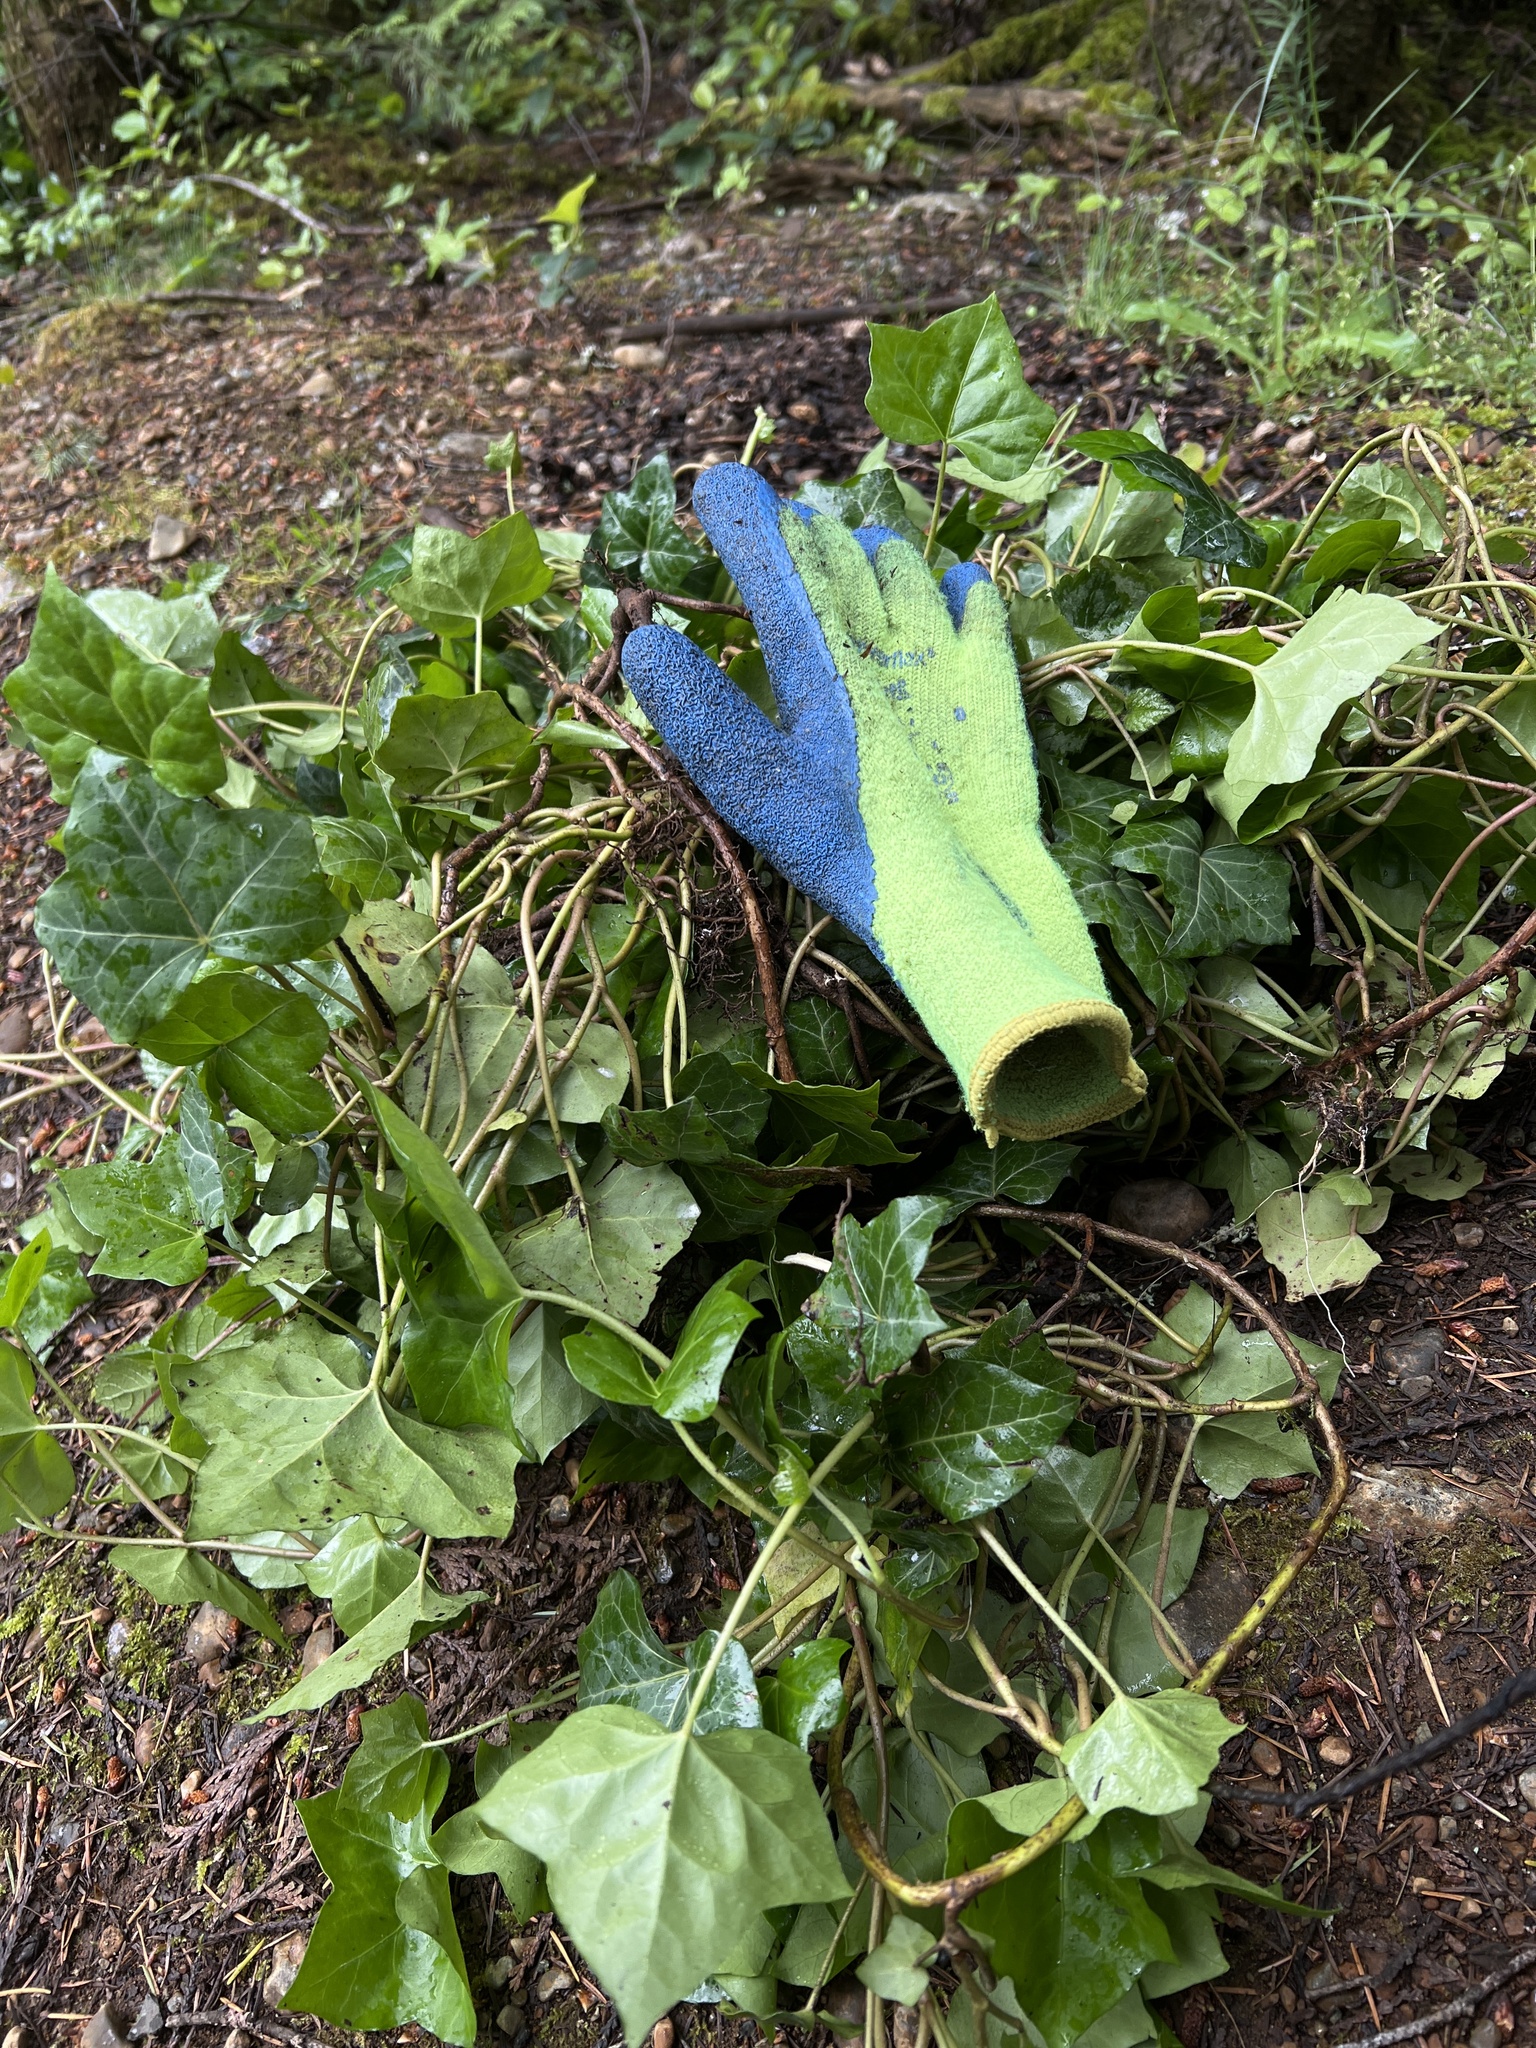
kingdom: Plantae
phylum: Tracheophyta
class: Magnoliopsida
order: Apiales
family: Araliaceae
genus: Hedera
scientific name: Hedera helix
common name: Ivy
